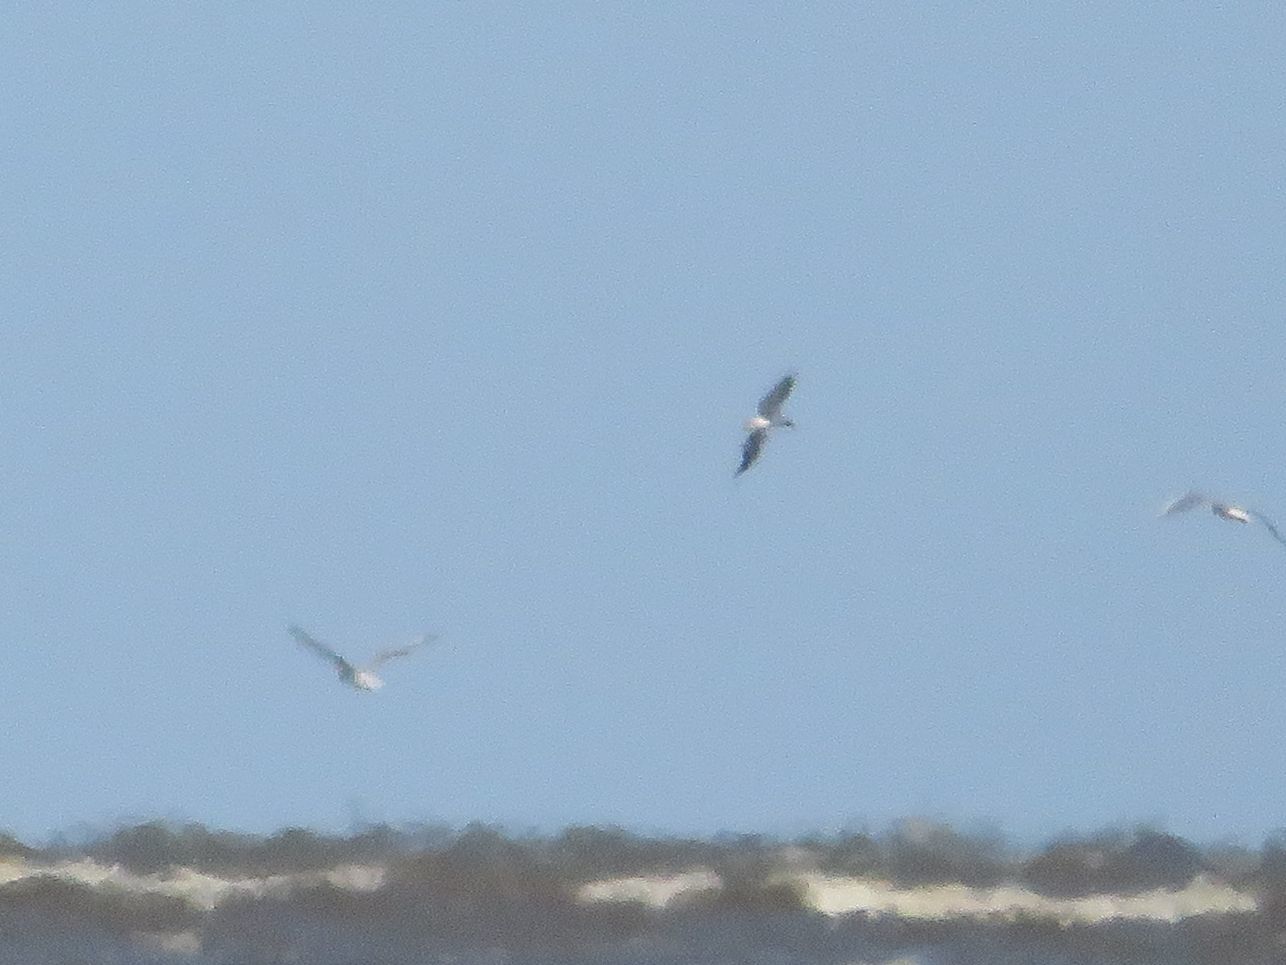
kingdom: Animalia
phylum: Chordata
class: Aves
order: Charadriiformes
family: Laridae
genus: Chroicocephalus
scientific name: Chroicocephalus maculipennis
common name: Brown-hooded gull
